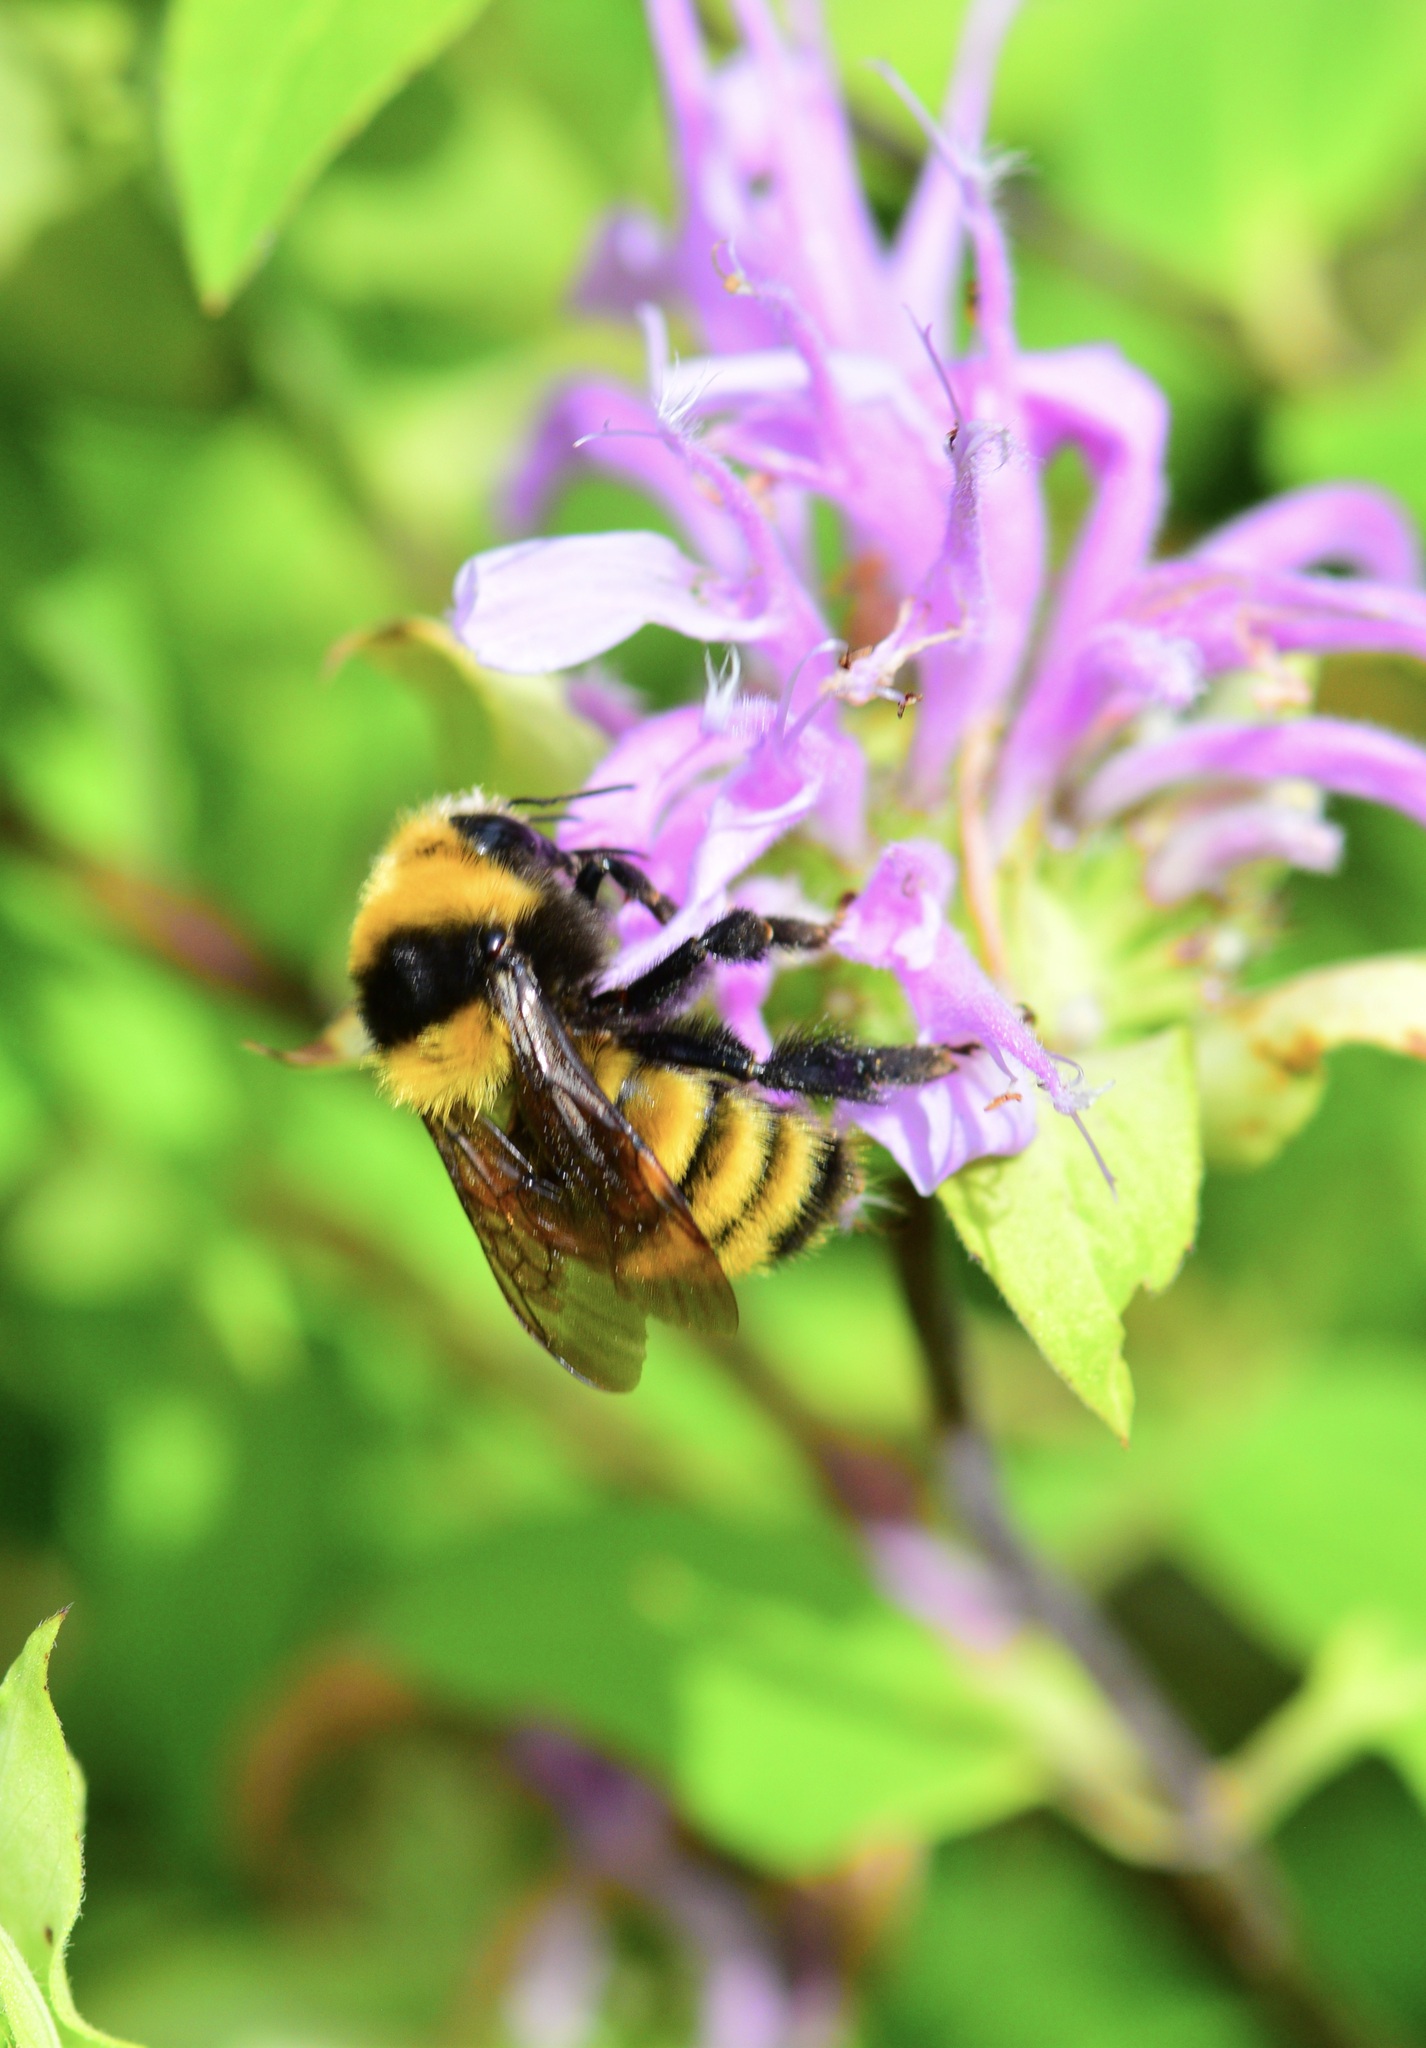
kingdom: Animalia
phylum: Arthropoda
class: Insecta
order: Hymenoptera
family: Apidae
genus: Bombus
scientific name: Bombus borealis
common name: Northern amber bumble bee
